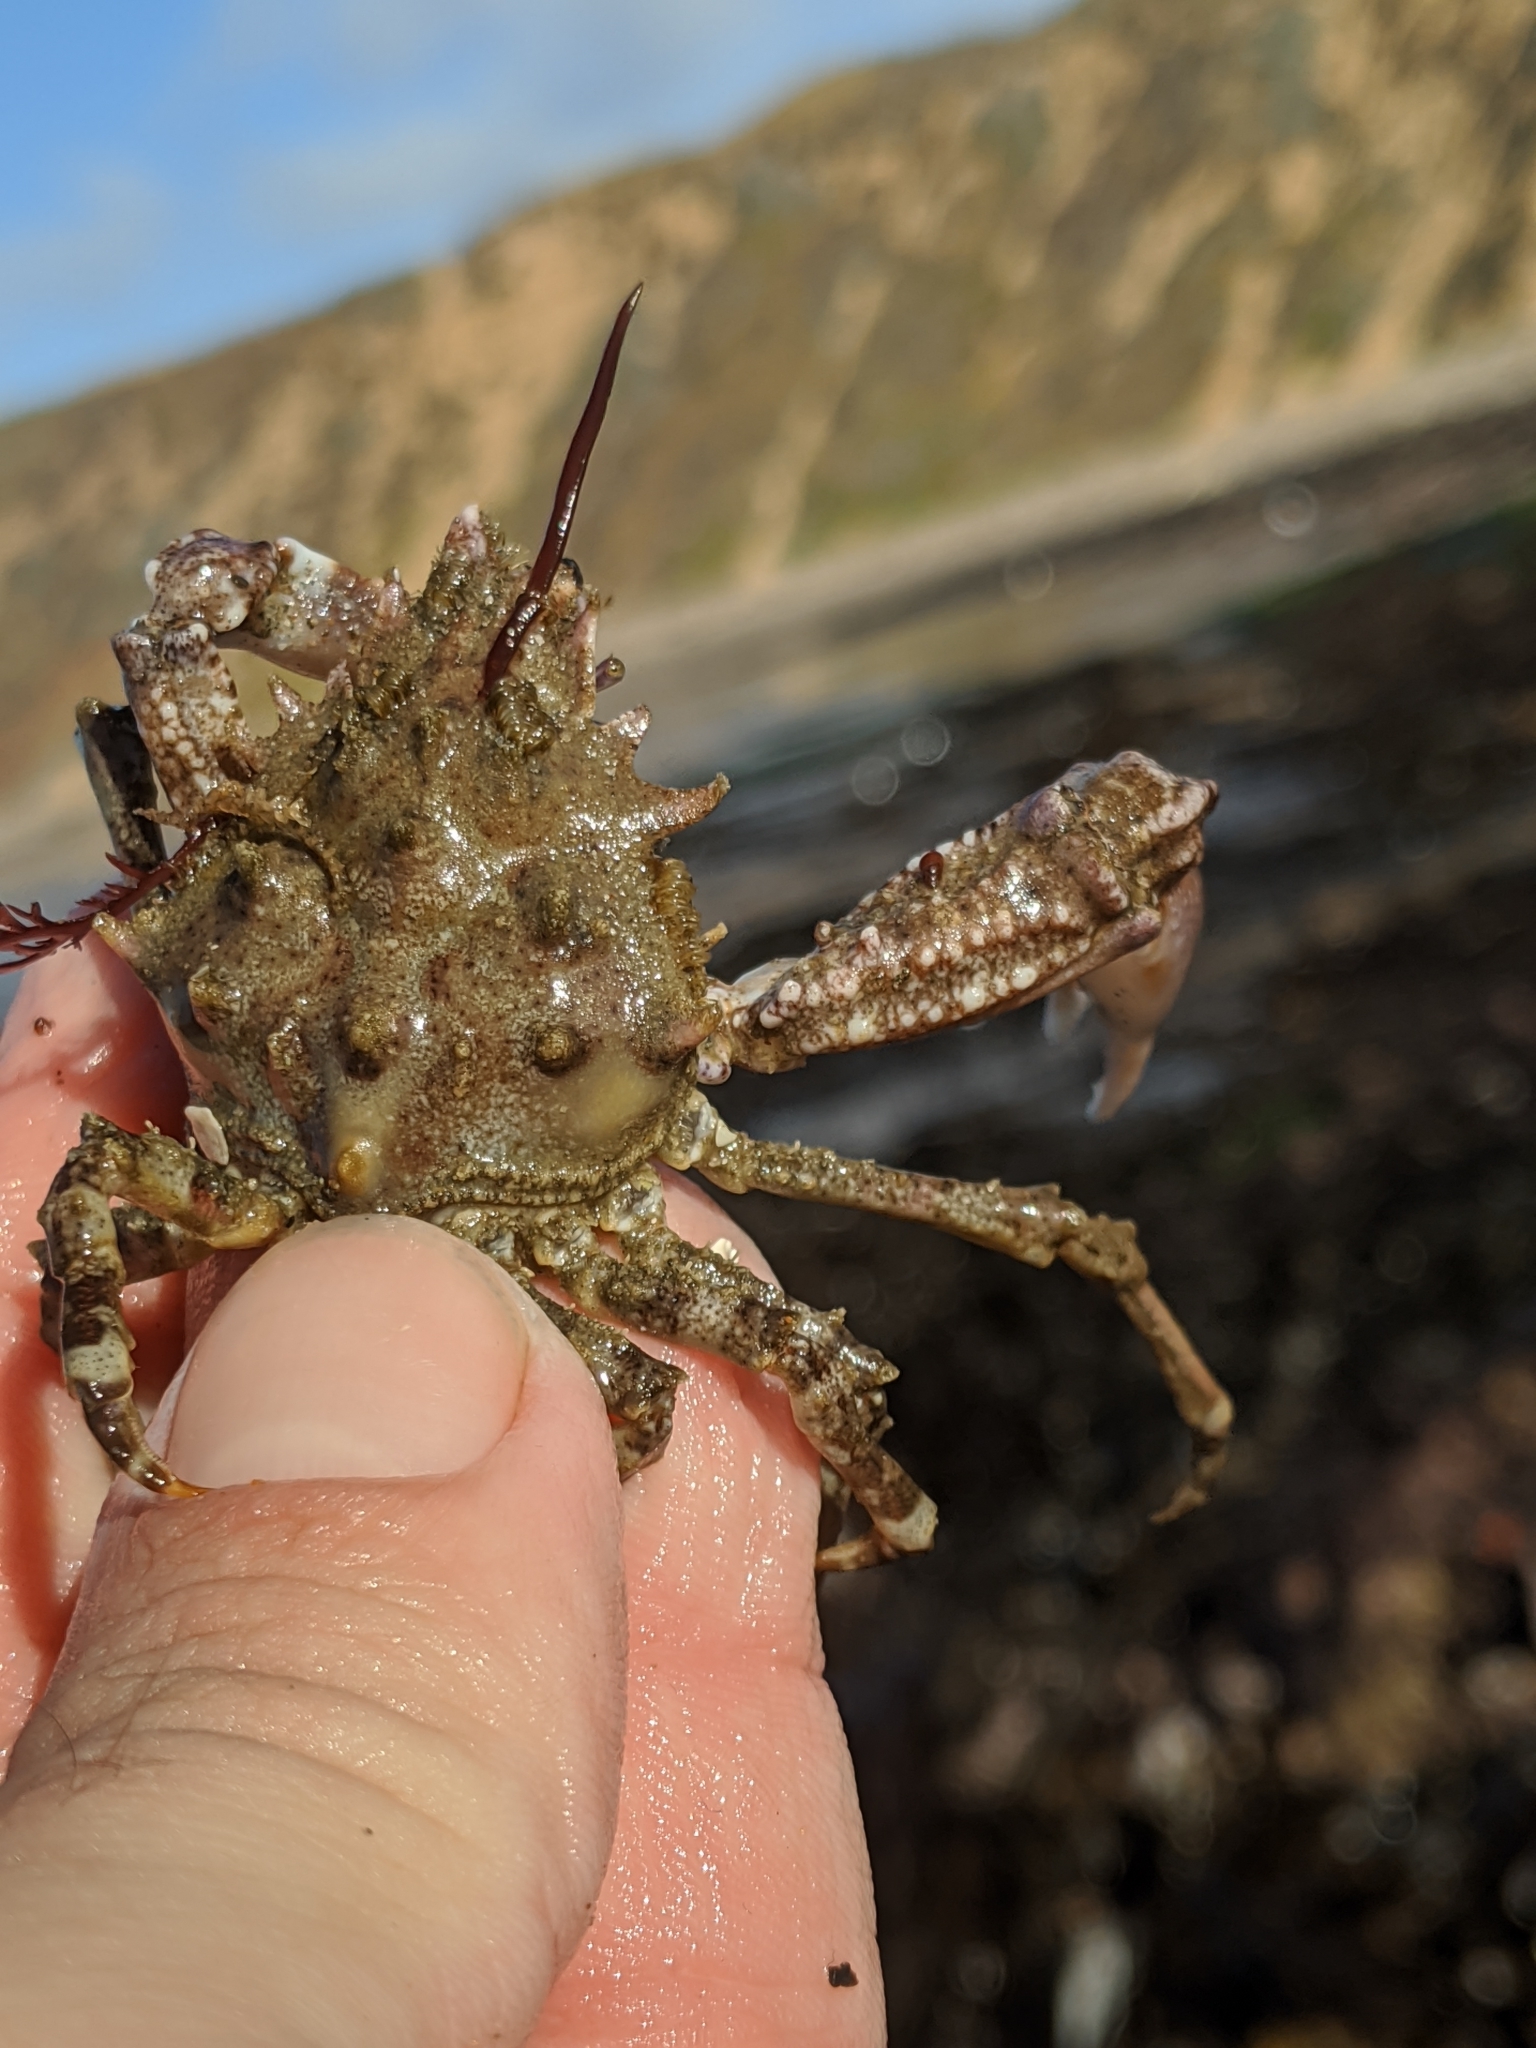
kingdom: Animalia
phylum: Arthropoda
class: Malacostraca
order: Decapoda
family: Epialtidae
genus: Pugettia
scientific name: Pugettia richii
